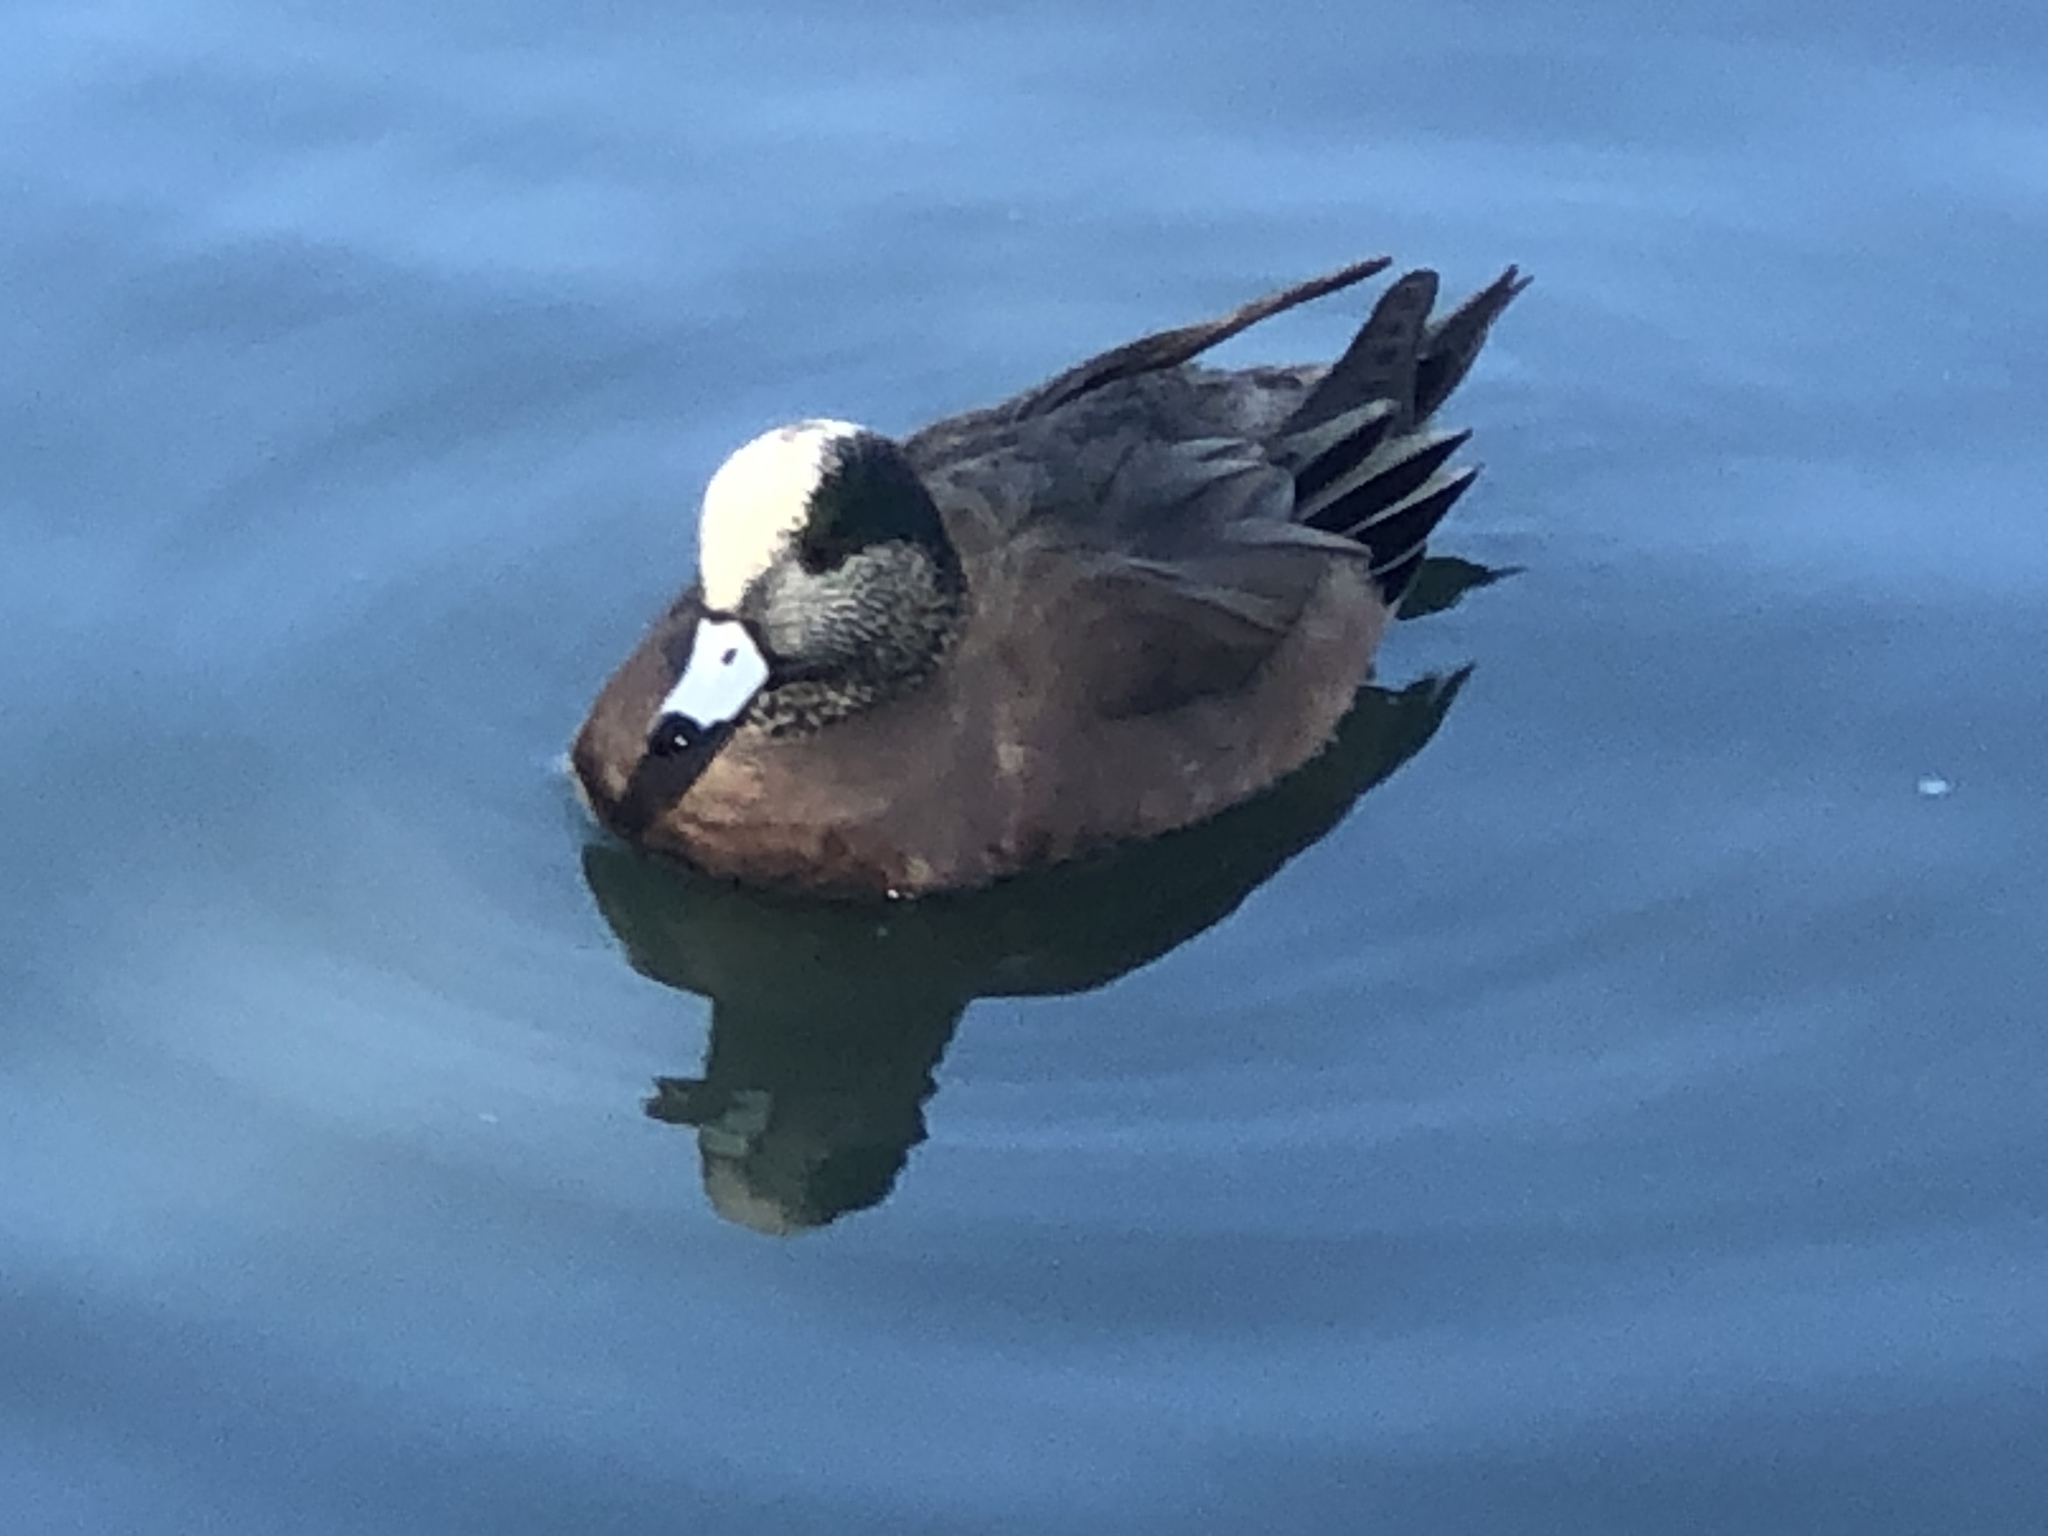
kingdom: Animalia
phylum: Chordata
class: Aves
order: Anseriformes
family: Anatidae
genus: Mareca
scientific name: Mareca americana
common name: American wigeon
